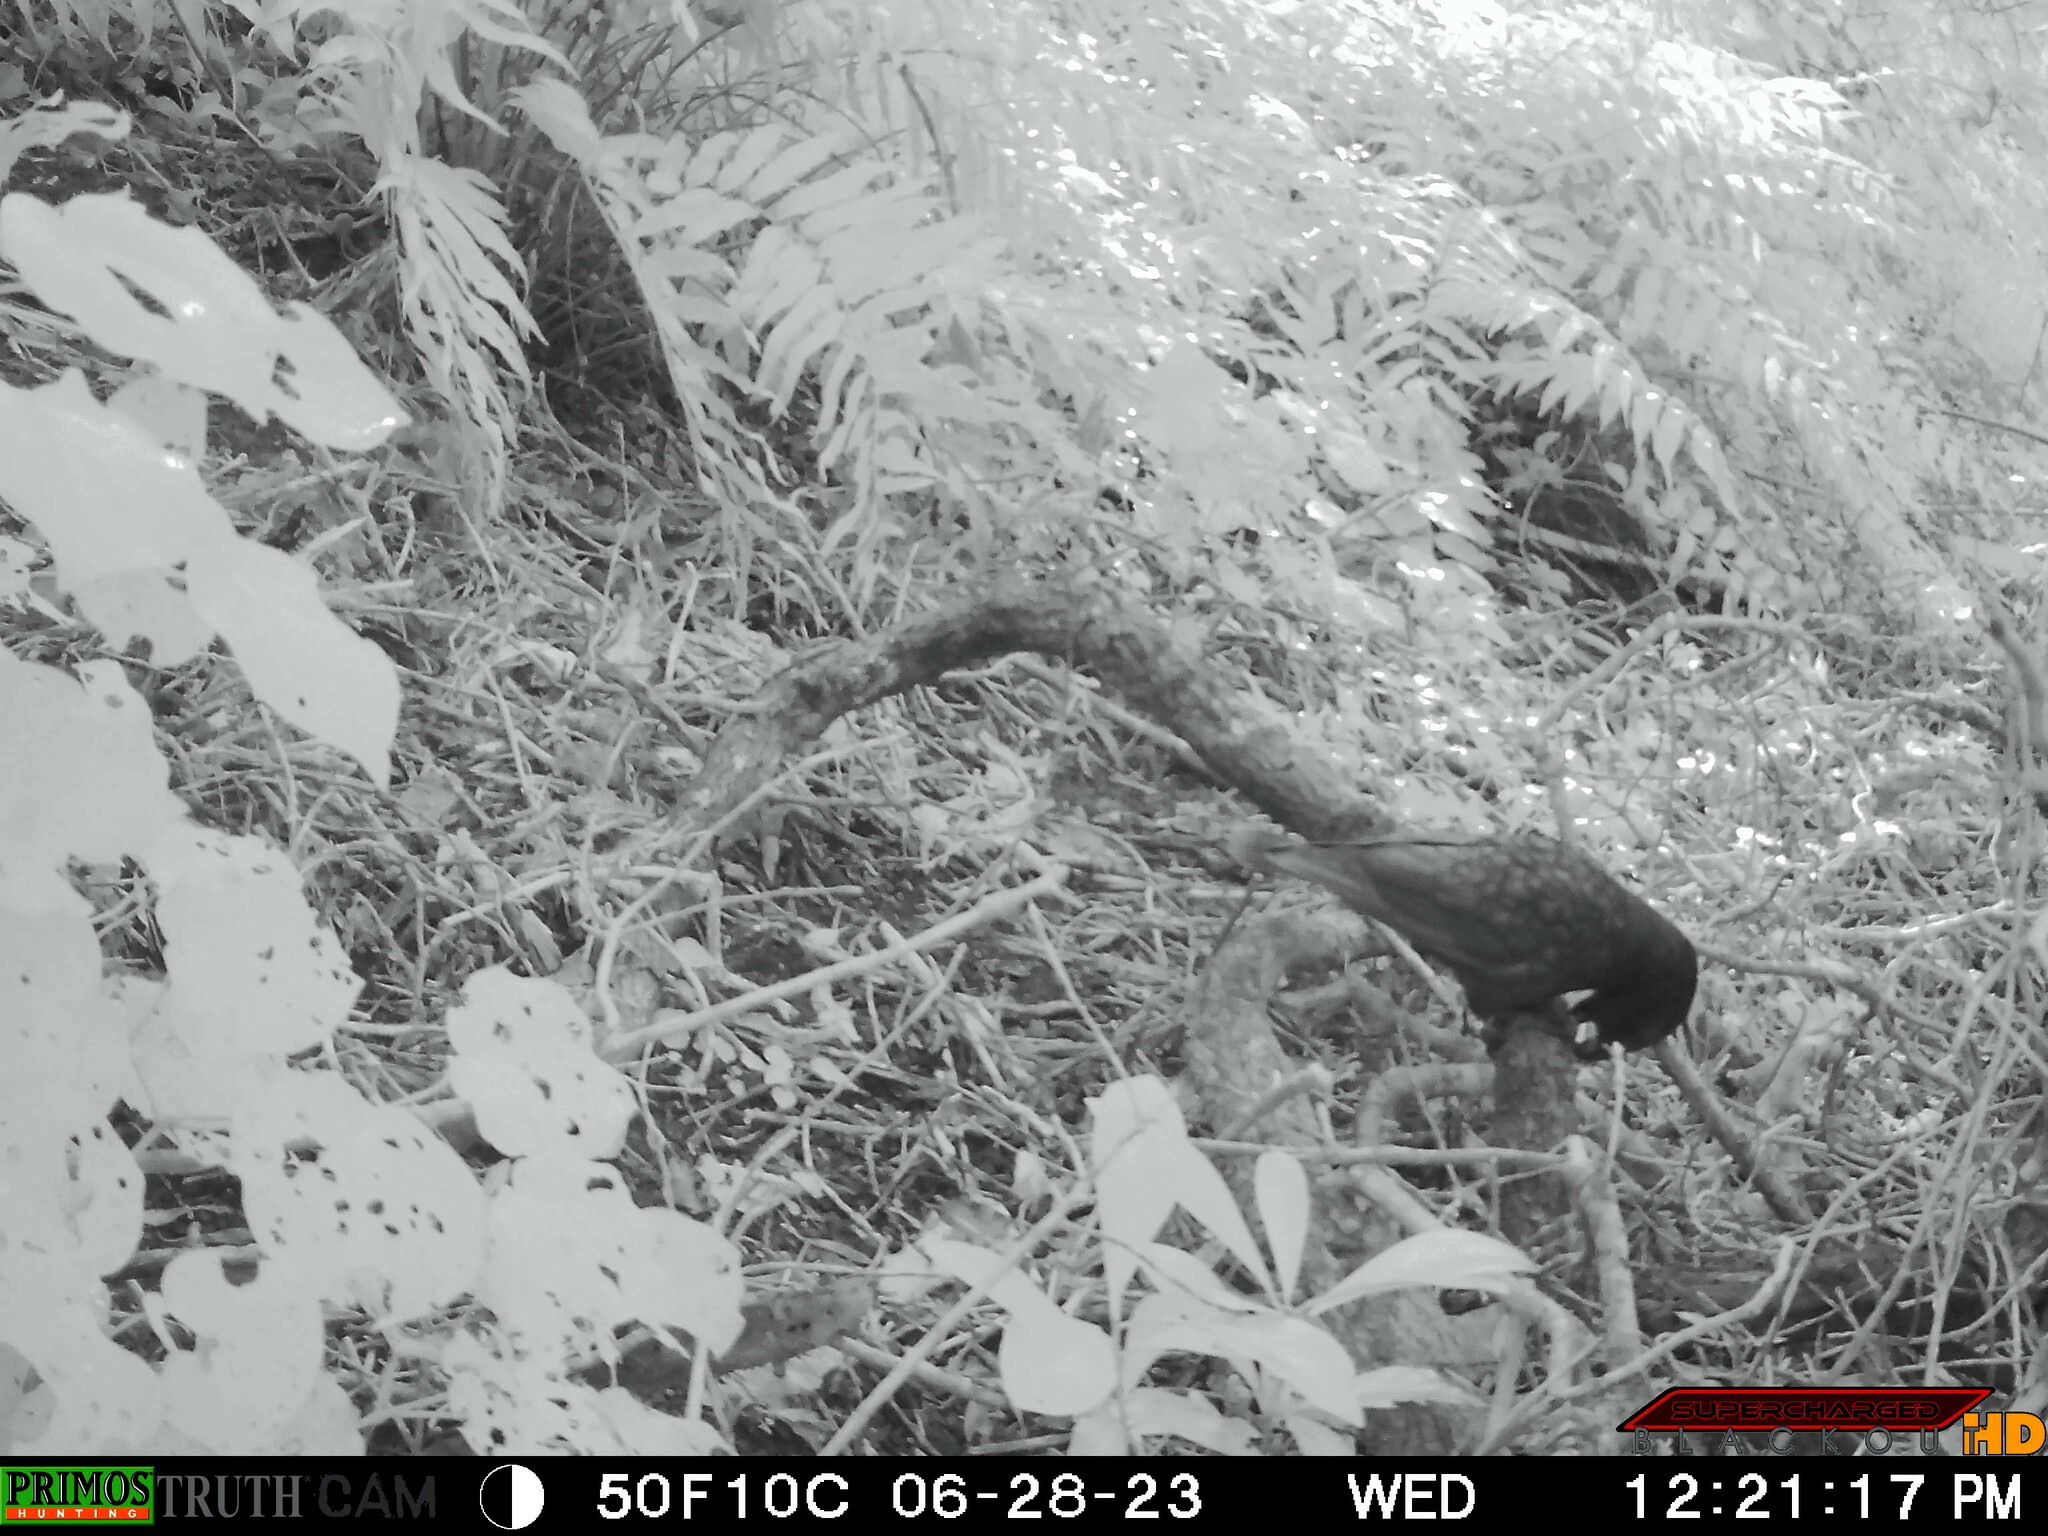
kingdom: Animalia
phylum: Chordata
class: Aves
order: Psittaciformes
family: Psittacidae
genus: Nestor
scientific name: Nestor meridionalis
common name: New zealand kaka
